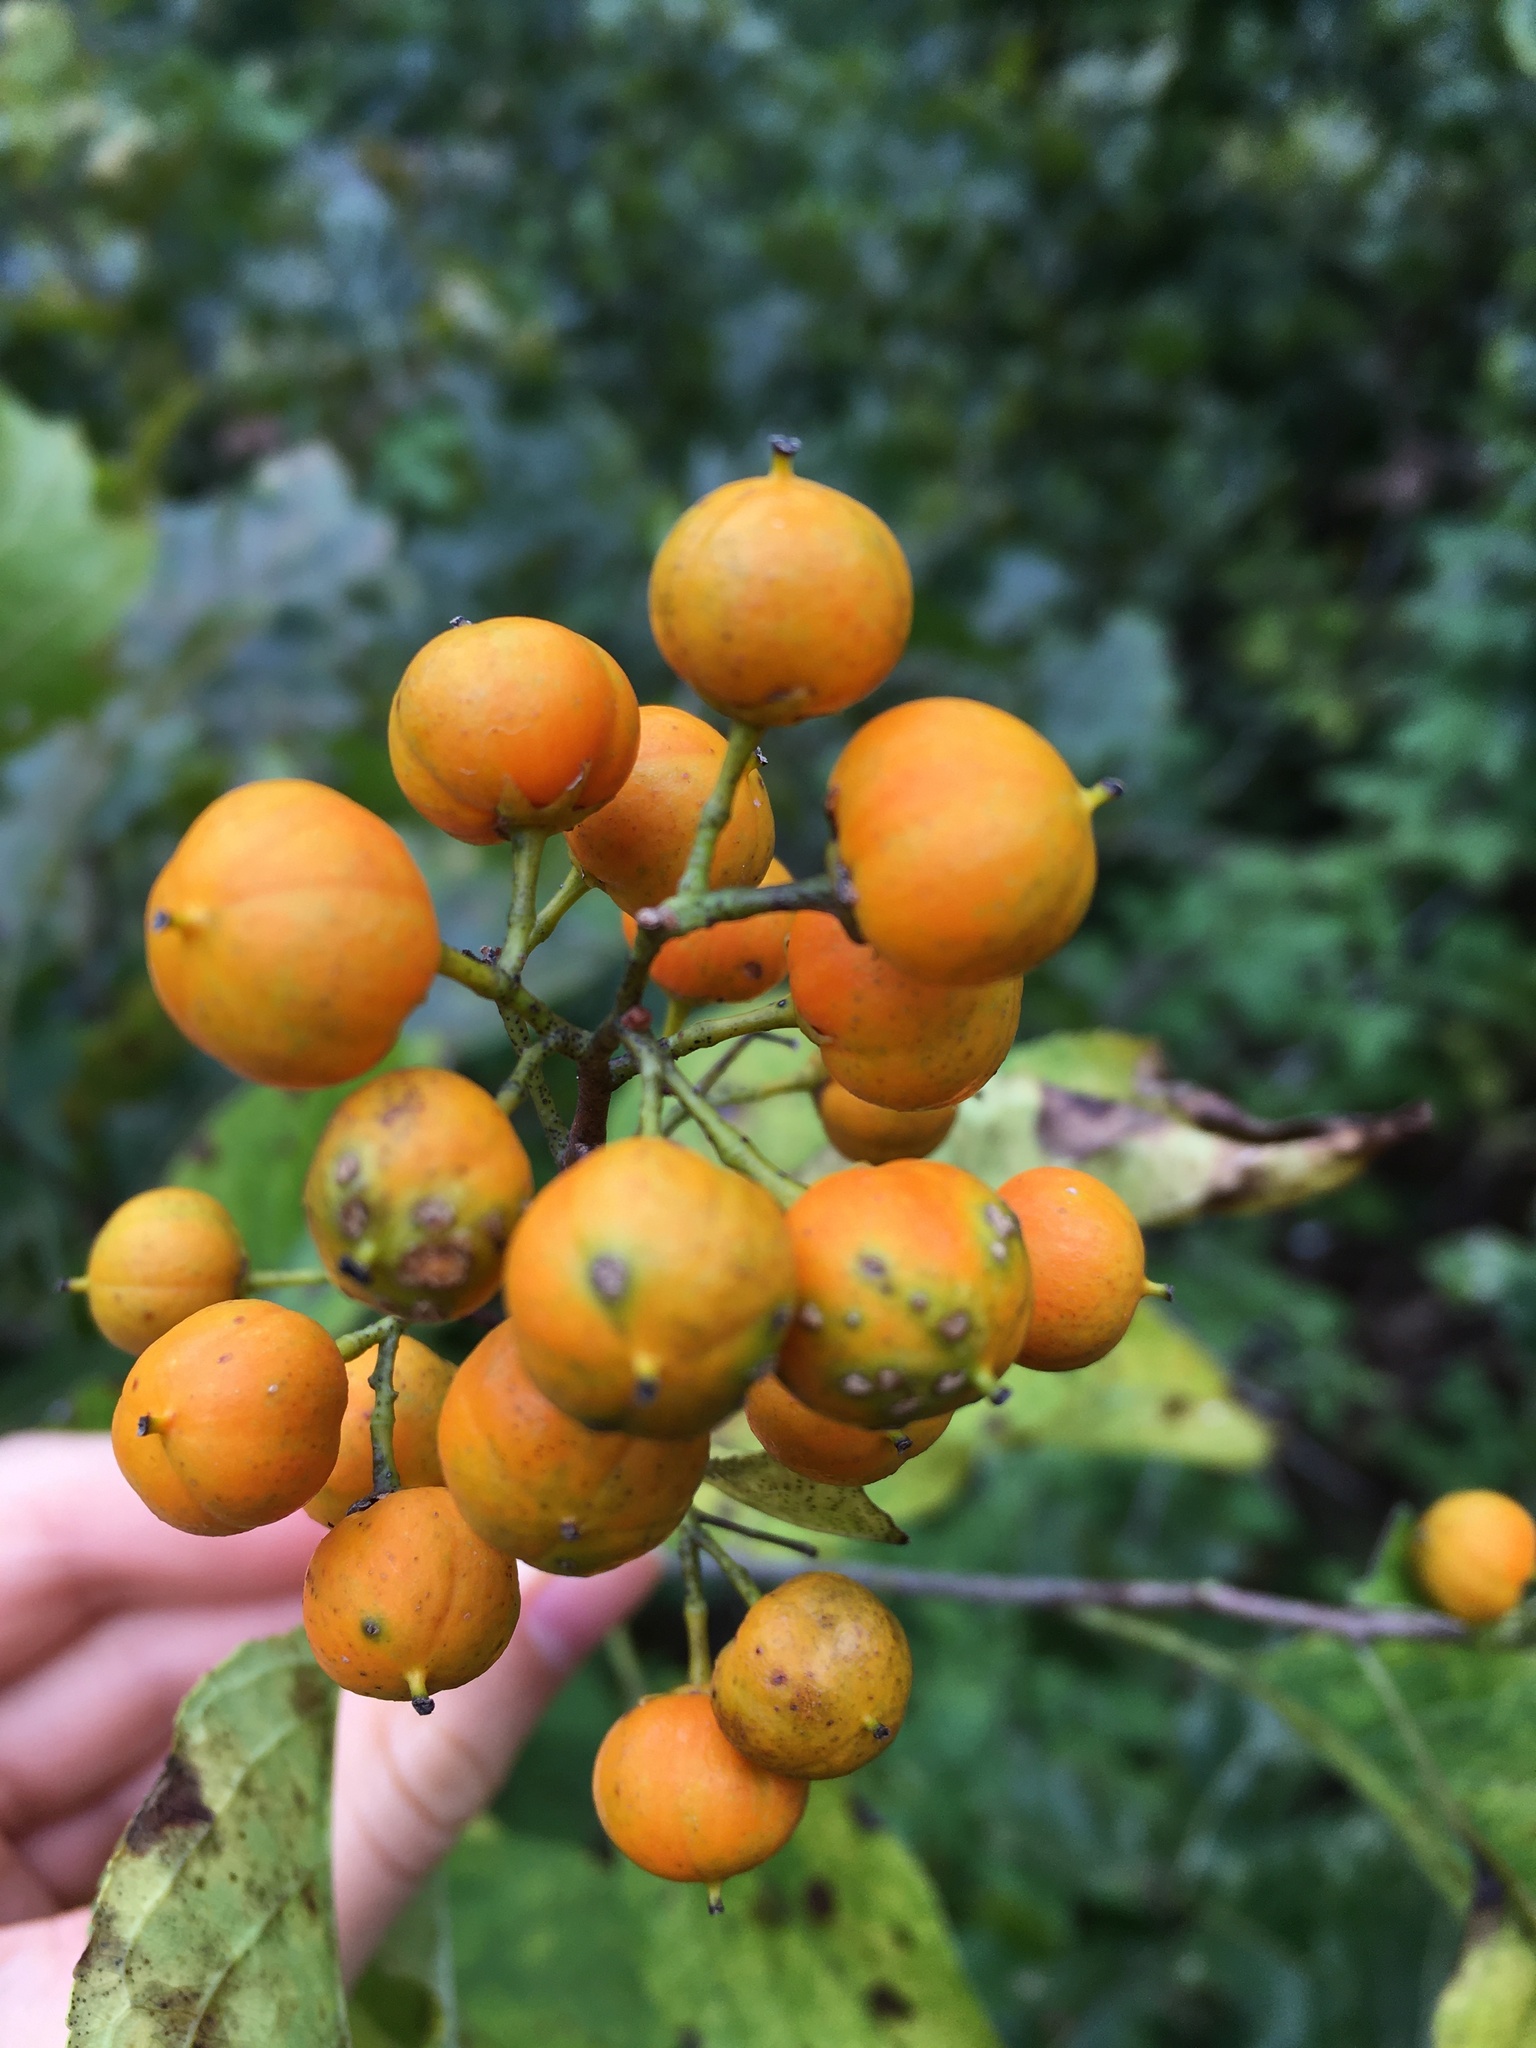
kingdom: Plantae
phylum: Tracheophyta
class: Magnoliopsida
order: Celastrales
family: Celastraceae
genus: Celastrus
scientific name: Celastrus scandens
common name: American bittersweet
